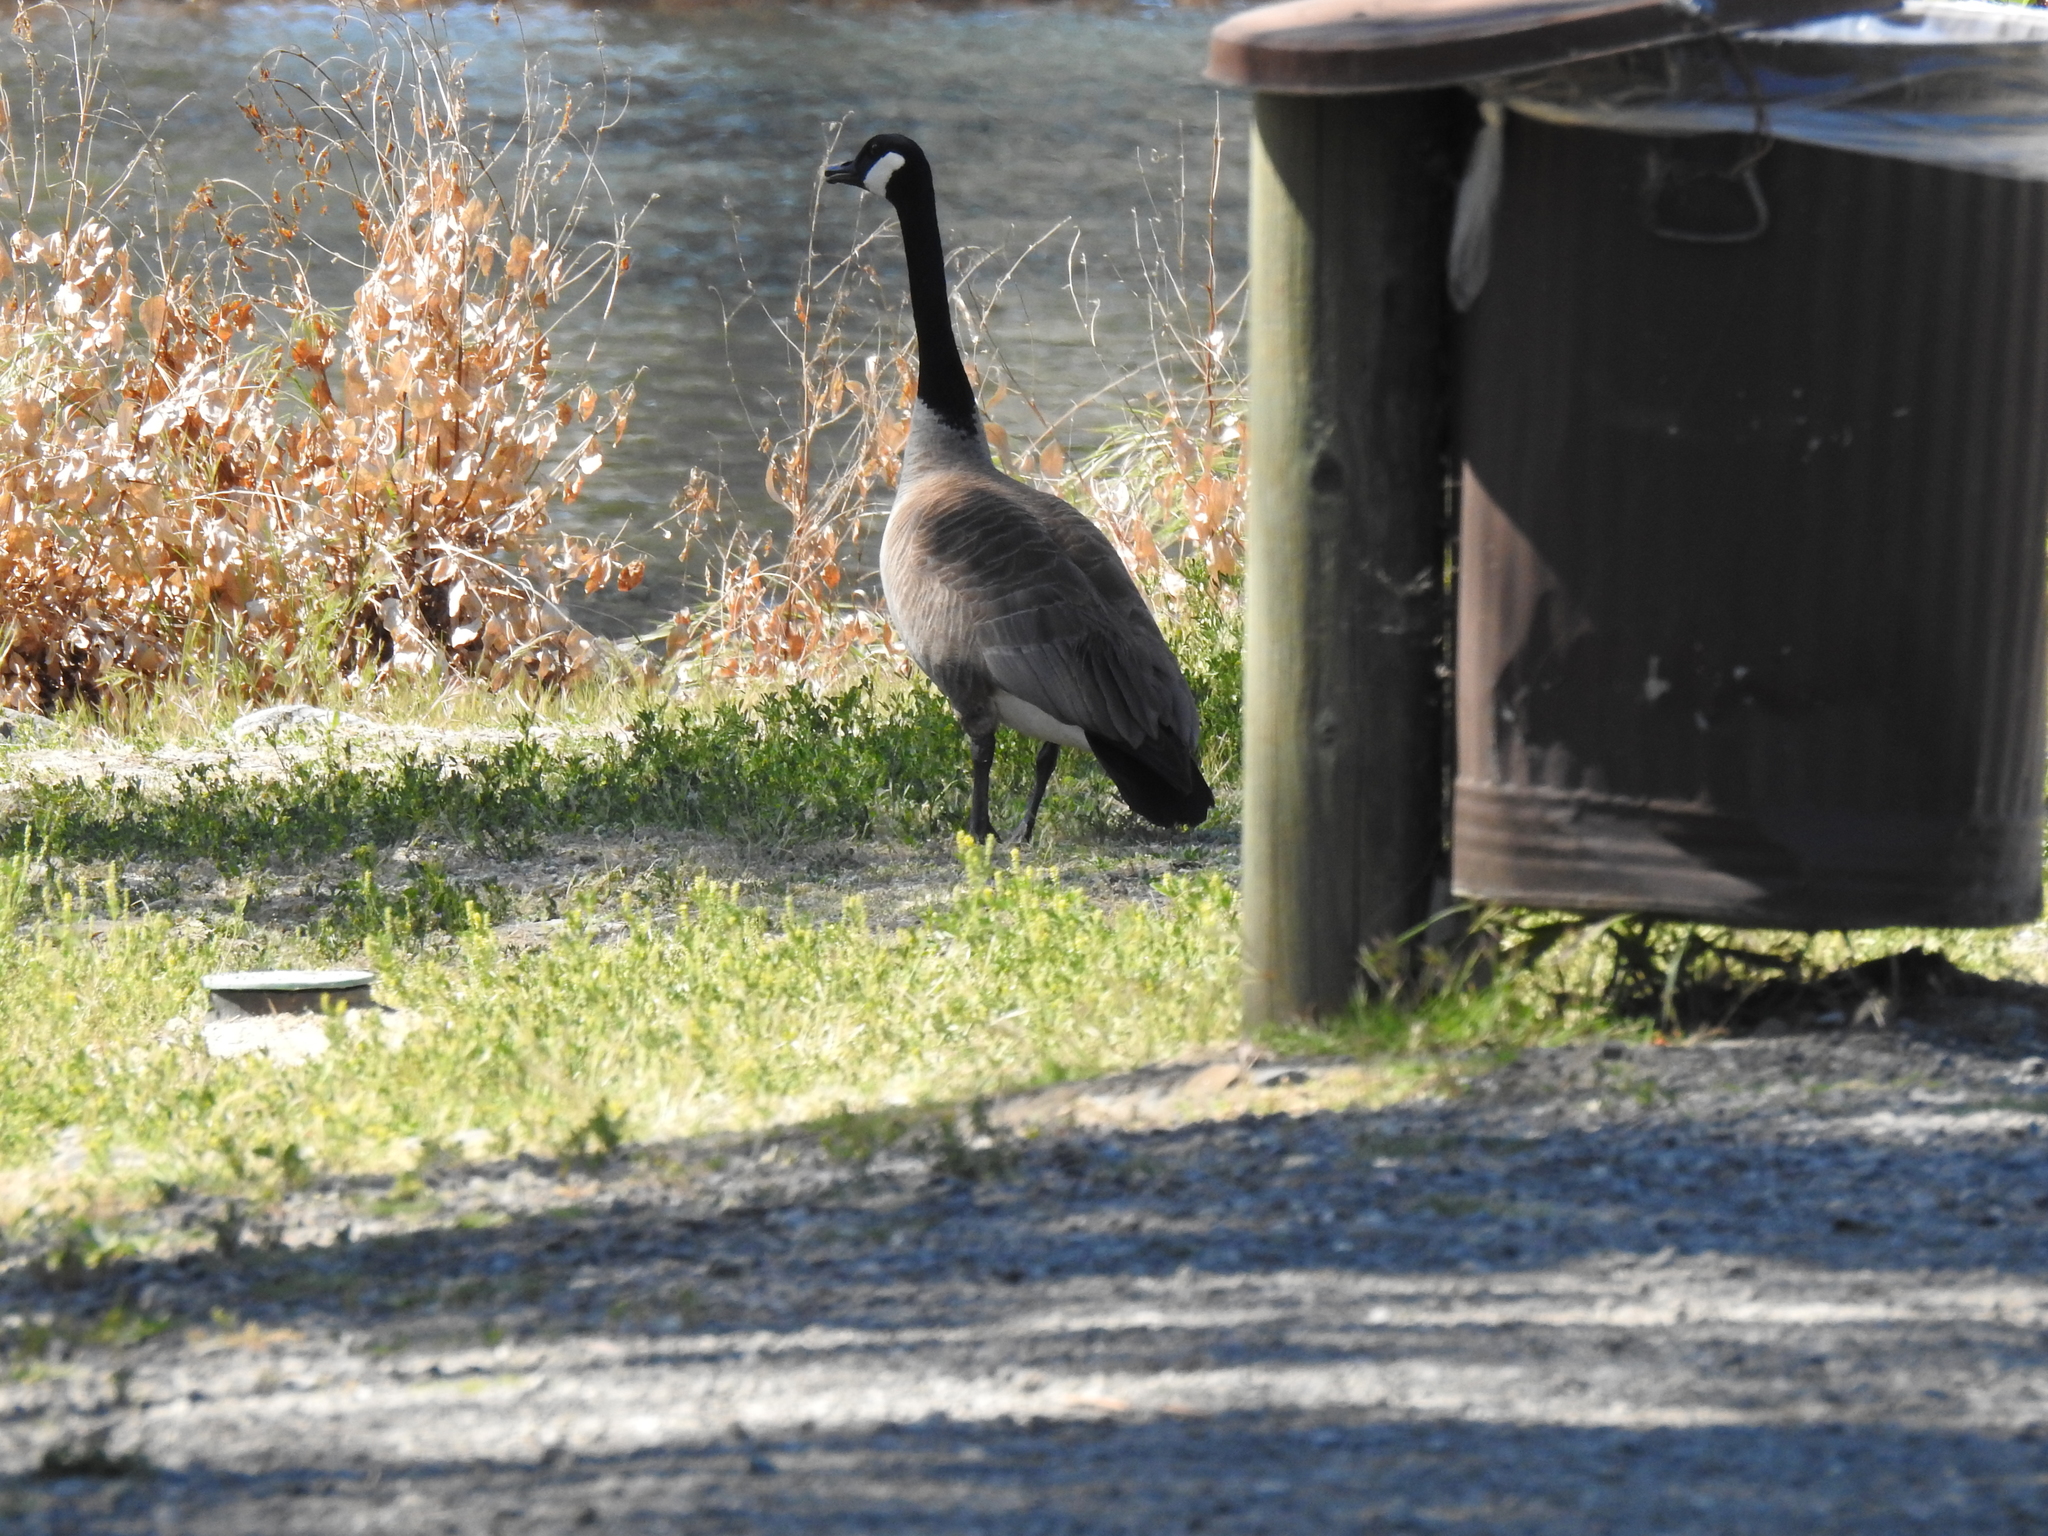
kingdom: Animalia
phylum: Chordata
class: Aves
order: Anseriformes
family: Anatidae
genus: Branta
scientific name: Branta canadensis
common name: Canada goose
